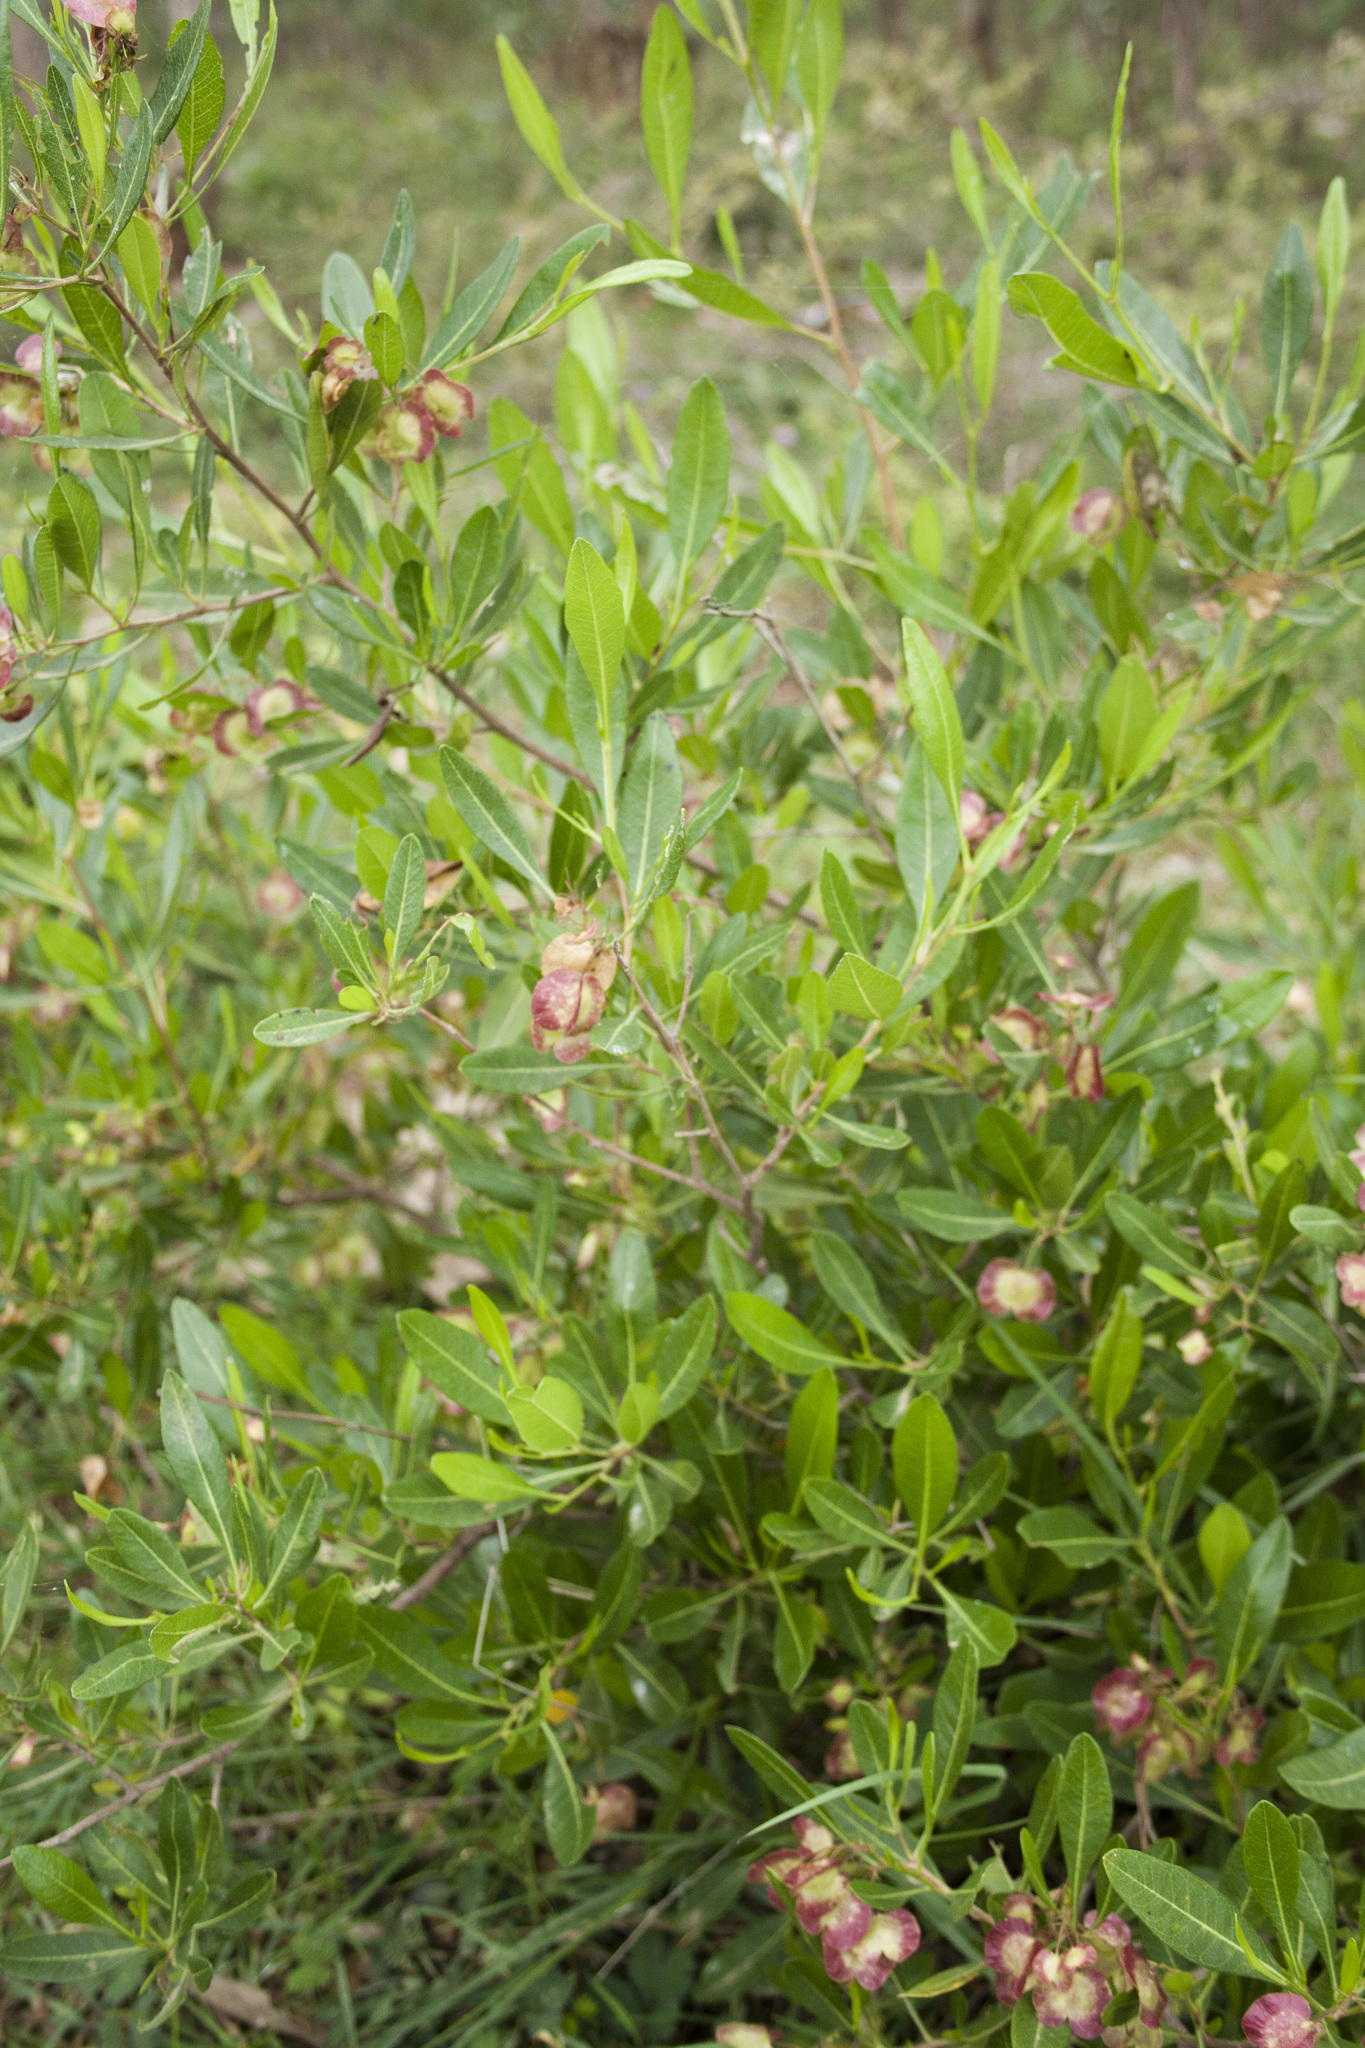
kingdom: Plantae
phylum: Tracheophyta
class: Magnoliopsida
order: Sapindales
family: Sapindaceae
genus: Dodonaea
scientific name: Dodonaea viscosa
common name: Hopbush
